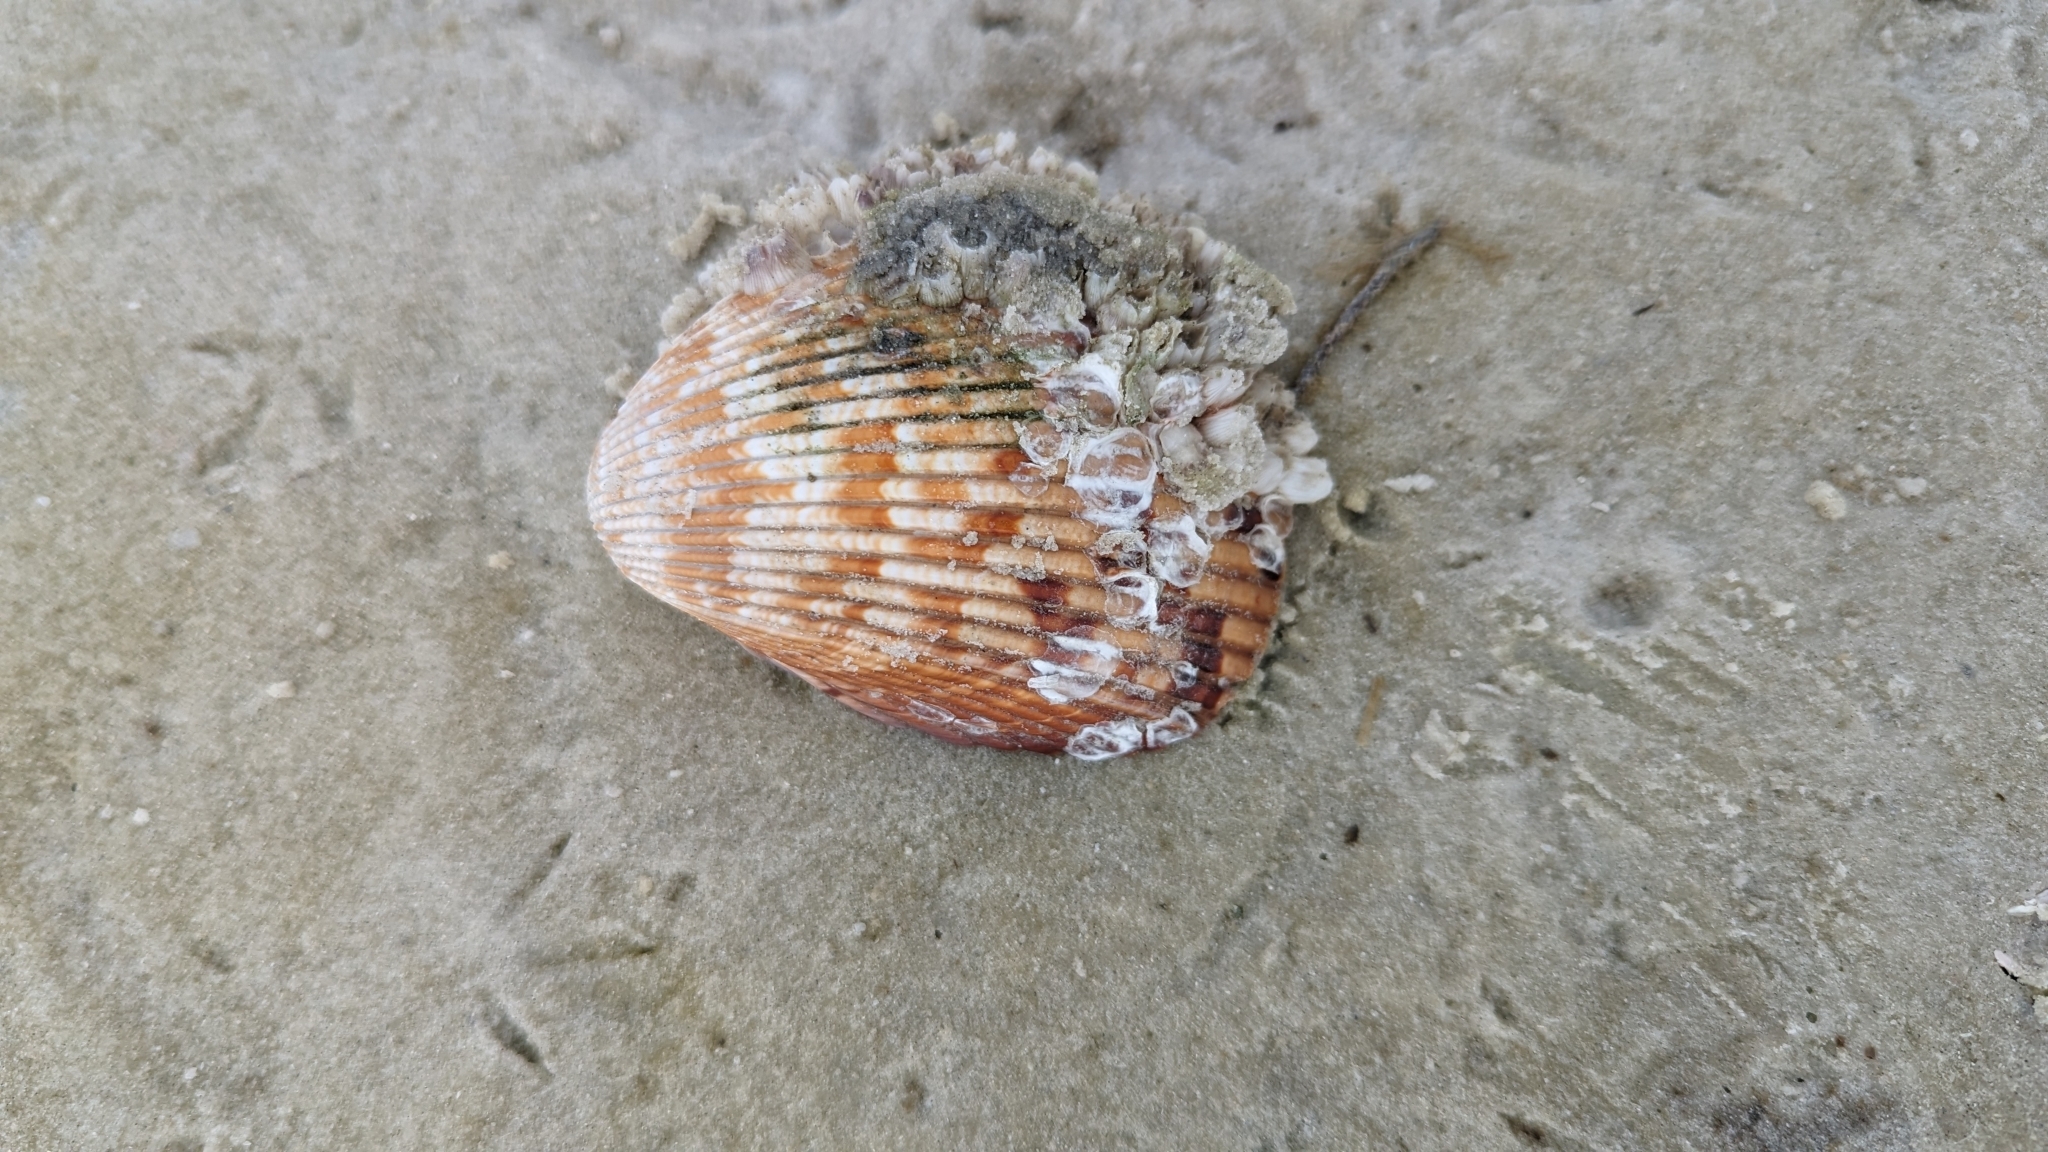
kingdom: Animalia
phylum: Mollusca
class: Bivalvia
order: Cardiida
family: Cardiidae
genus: Dinocardium
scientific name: Dinocardium robustum
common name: Atlantic giant cockle
